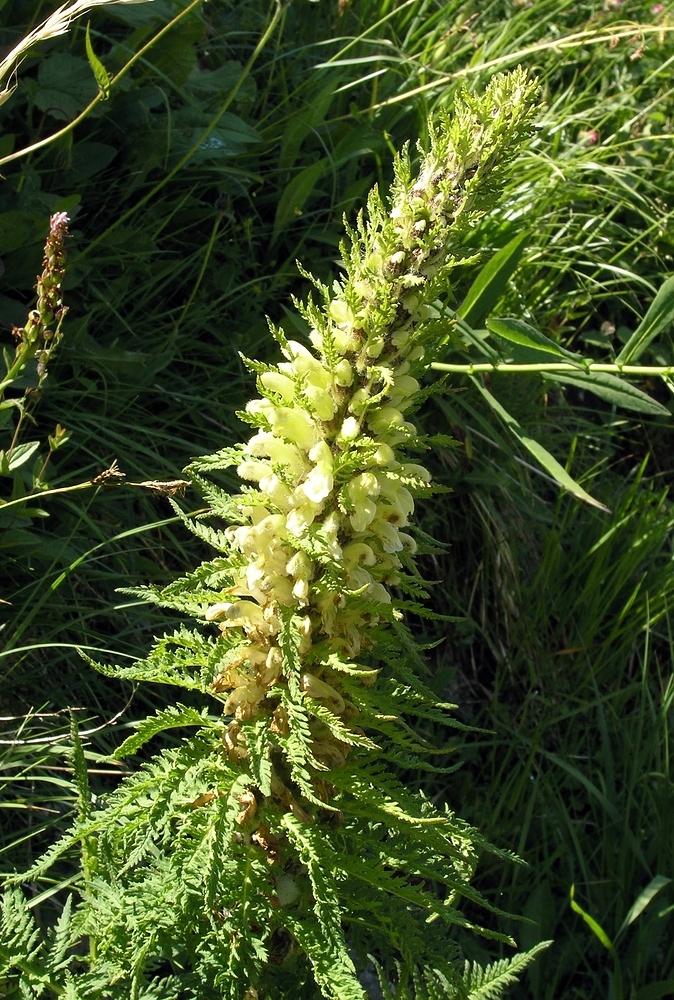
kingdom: Plantae
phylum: Tracheophyta
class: Magnoliopsida
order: Lamiales
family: Orobanchaceae
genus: Pedicularis
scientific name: Pedicularis foliosa
